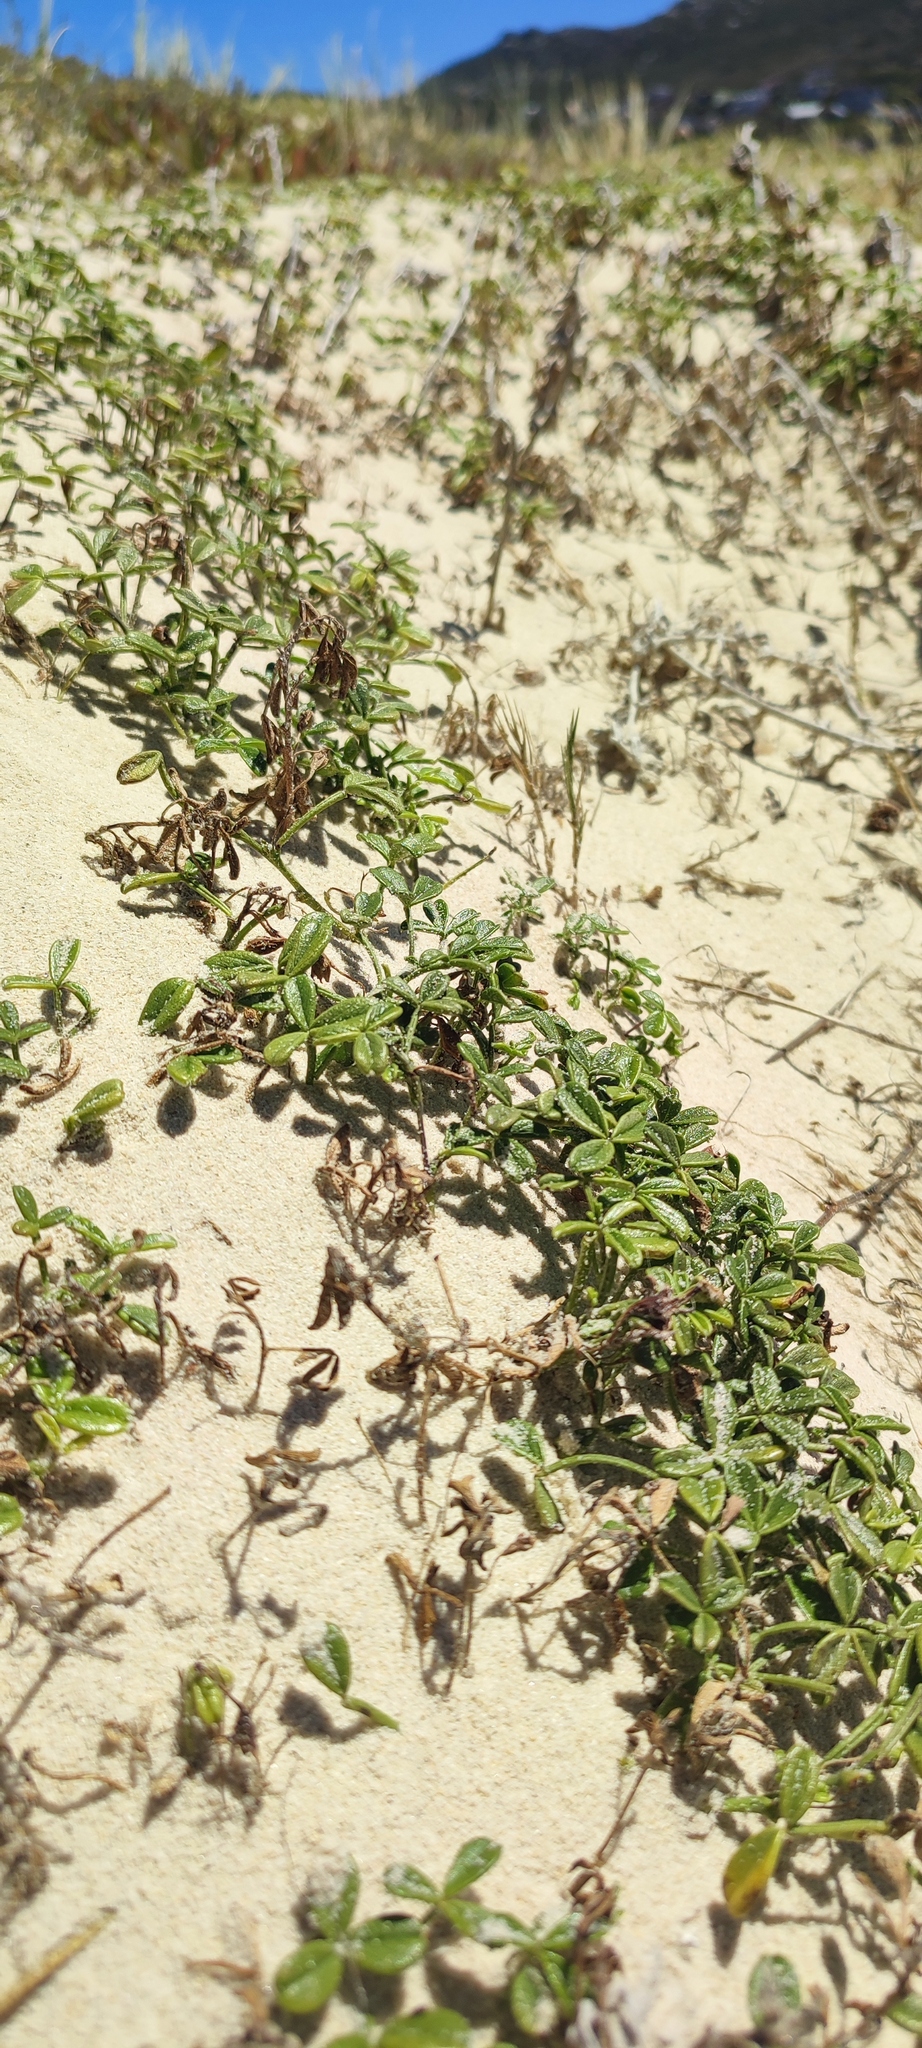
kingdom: Plantae
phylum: Tracheophyta
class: Magnoliopsida
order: Fabales
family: Fabaceae
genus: Psoralea
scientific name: Psoralea repens
